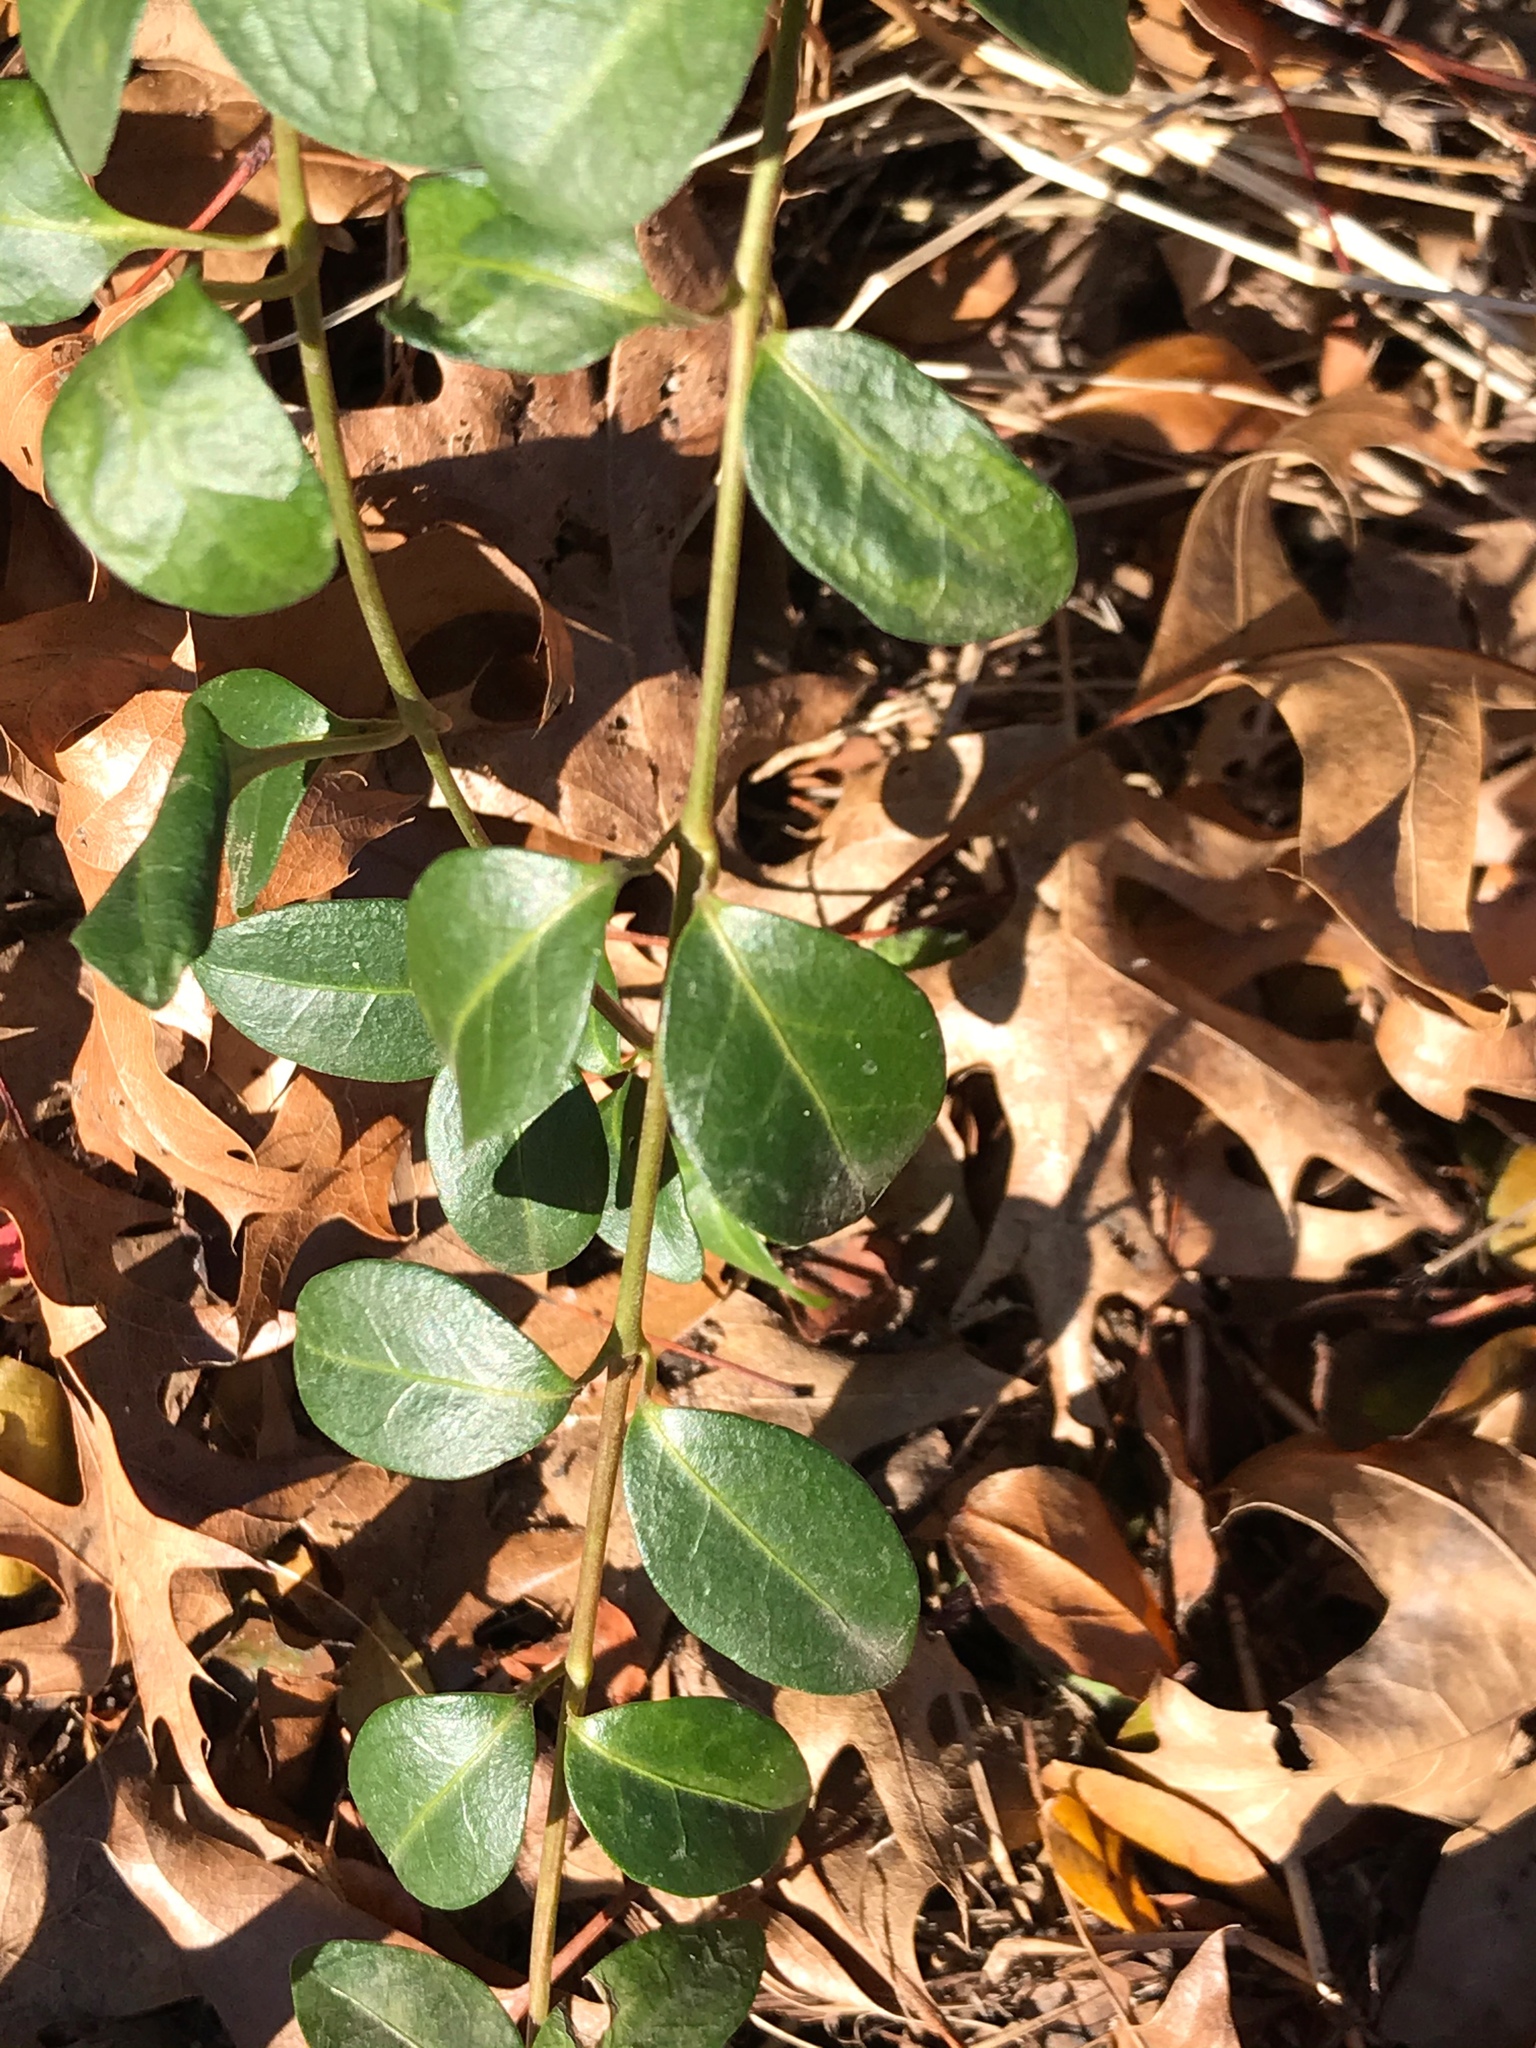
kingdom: Plantae
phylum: Tracheophyta
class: Magnoliopsida
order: Gentianales
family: Apocynaceae
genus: Vinca
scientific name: Vinca minor
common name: Lesser periwinkle
